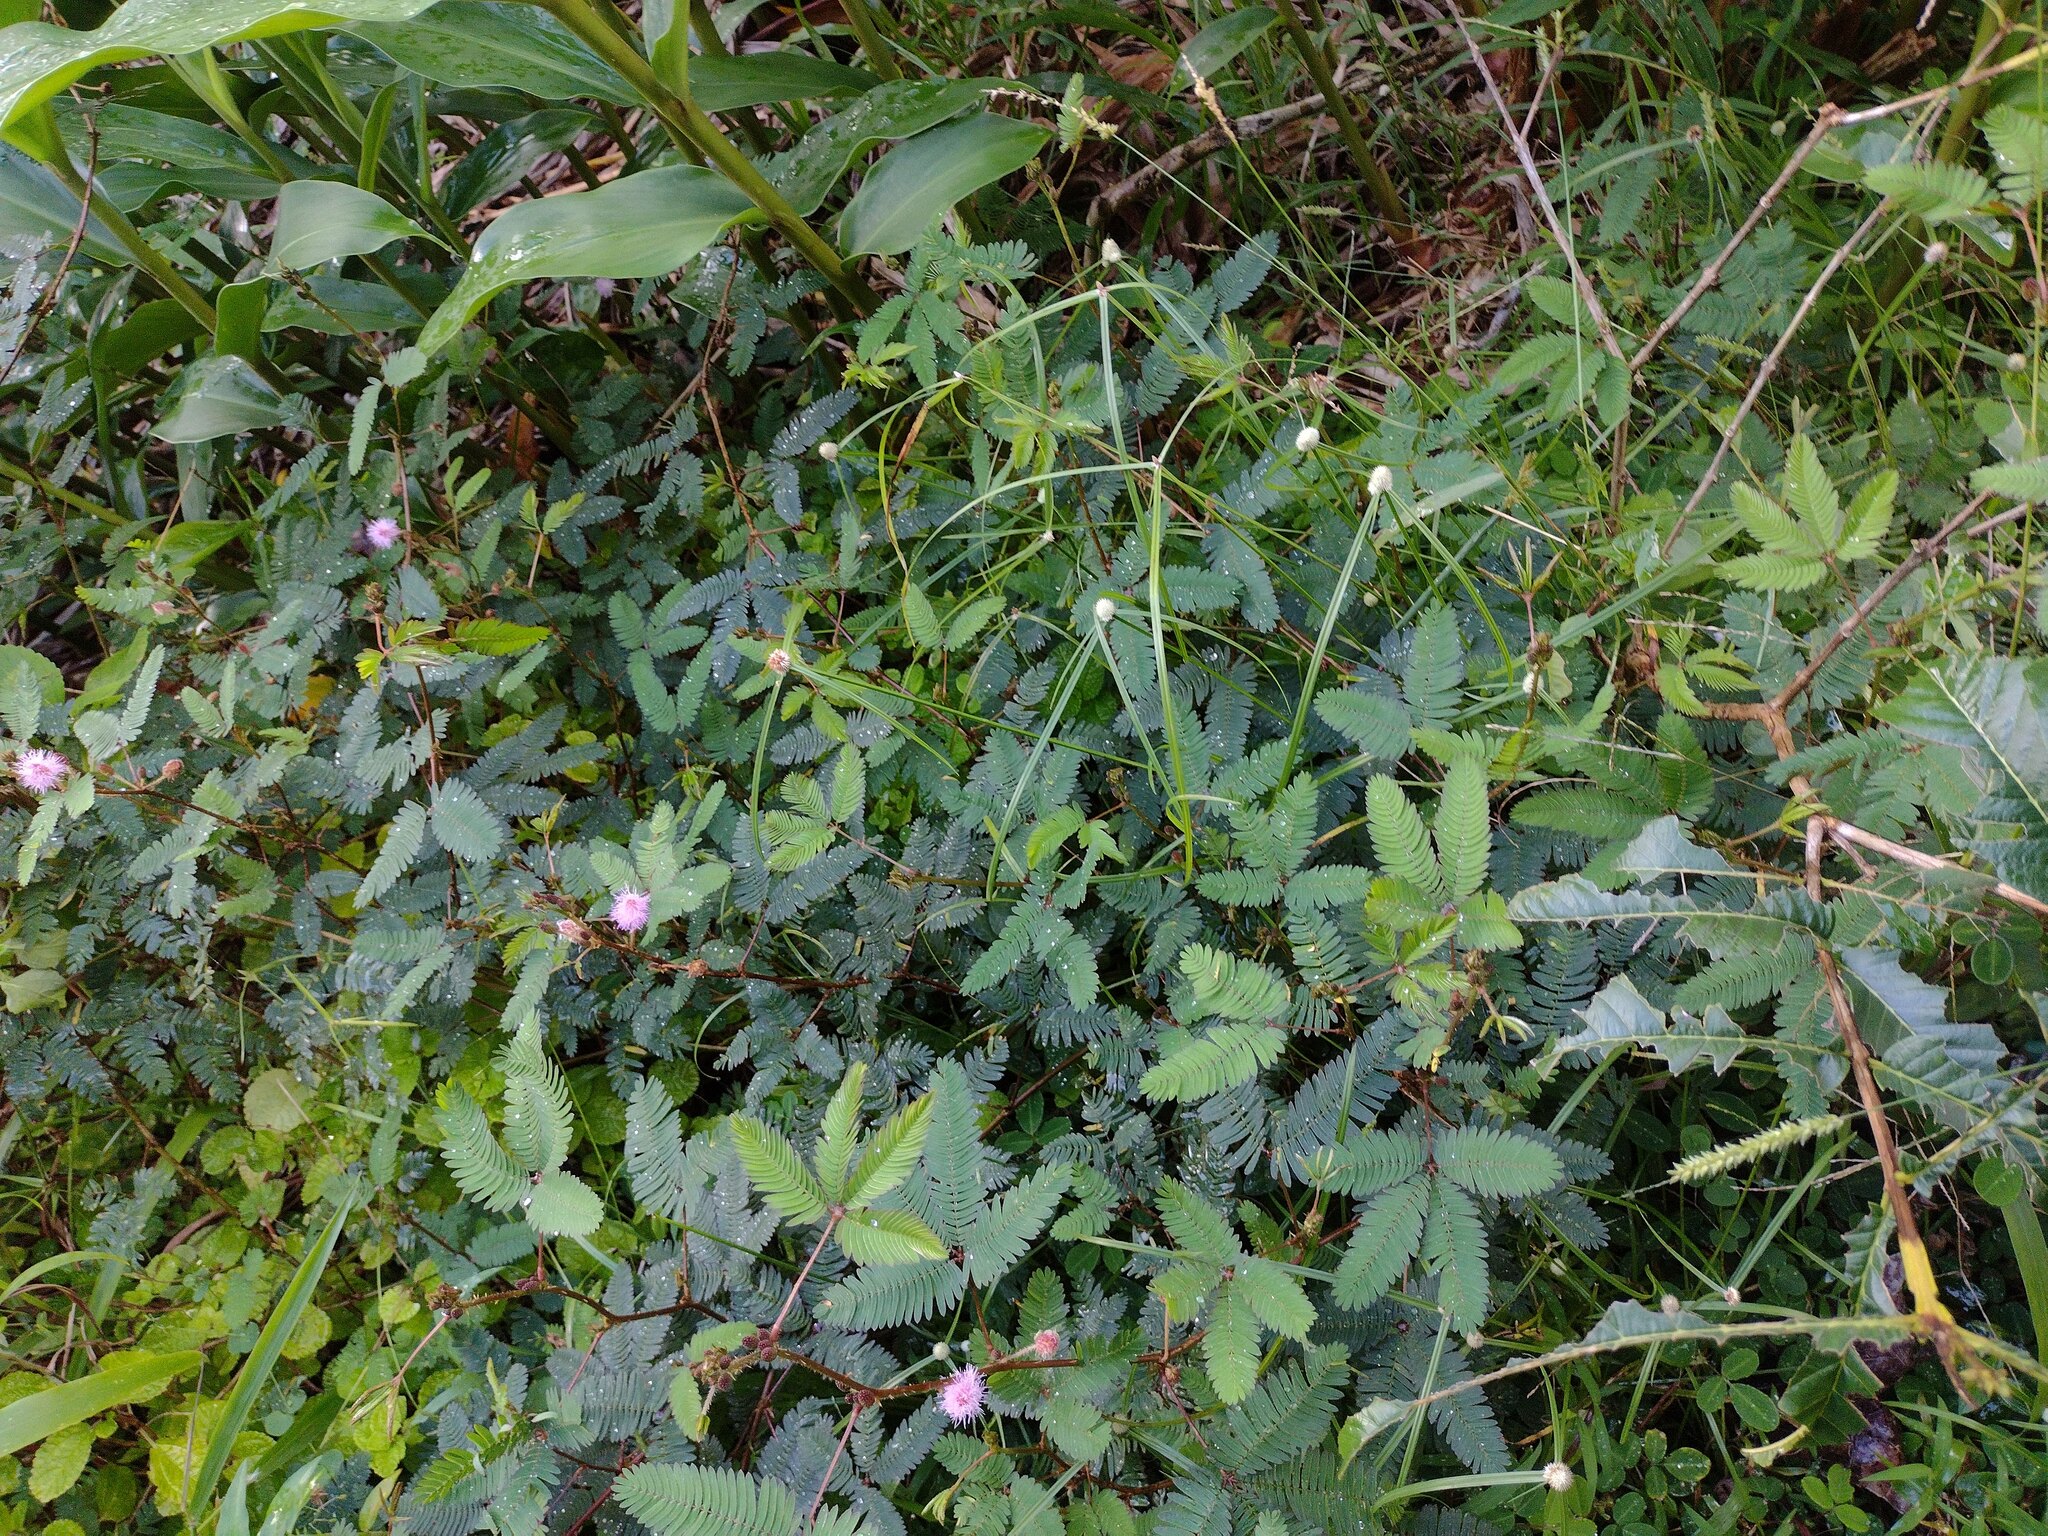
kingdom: Plantae
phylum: Tracheophyta
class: Magnoliopsida
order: Fabales
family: Fabaceae
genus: Mimosa
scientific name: Mimosa pudica
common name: Sensitive plant
